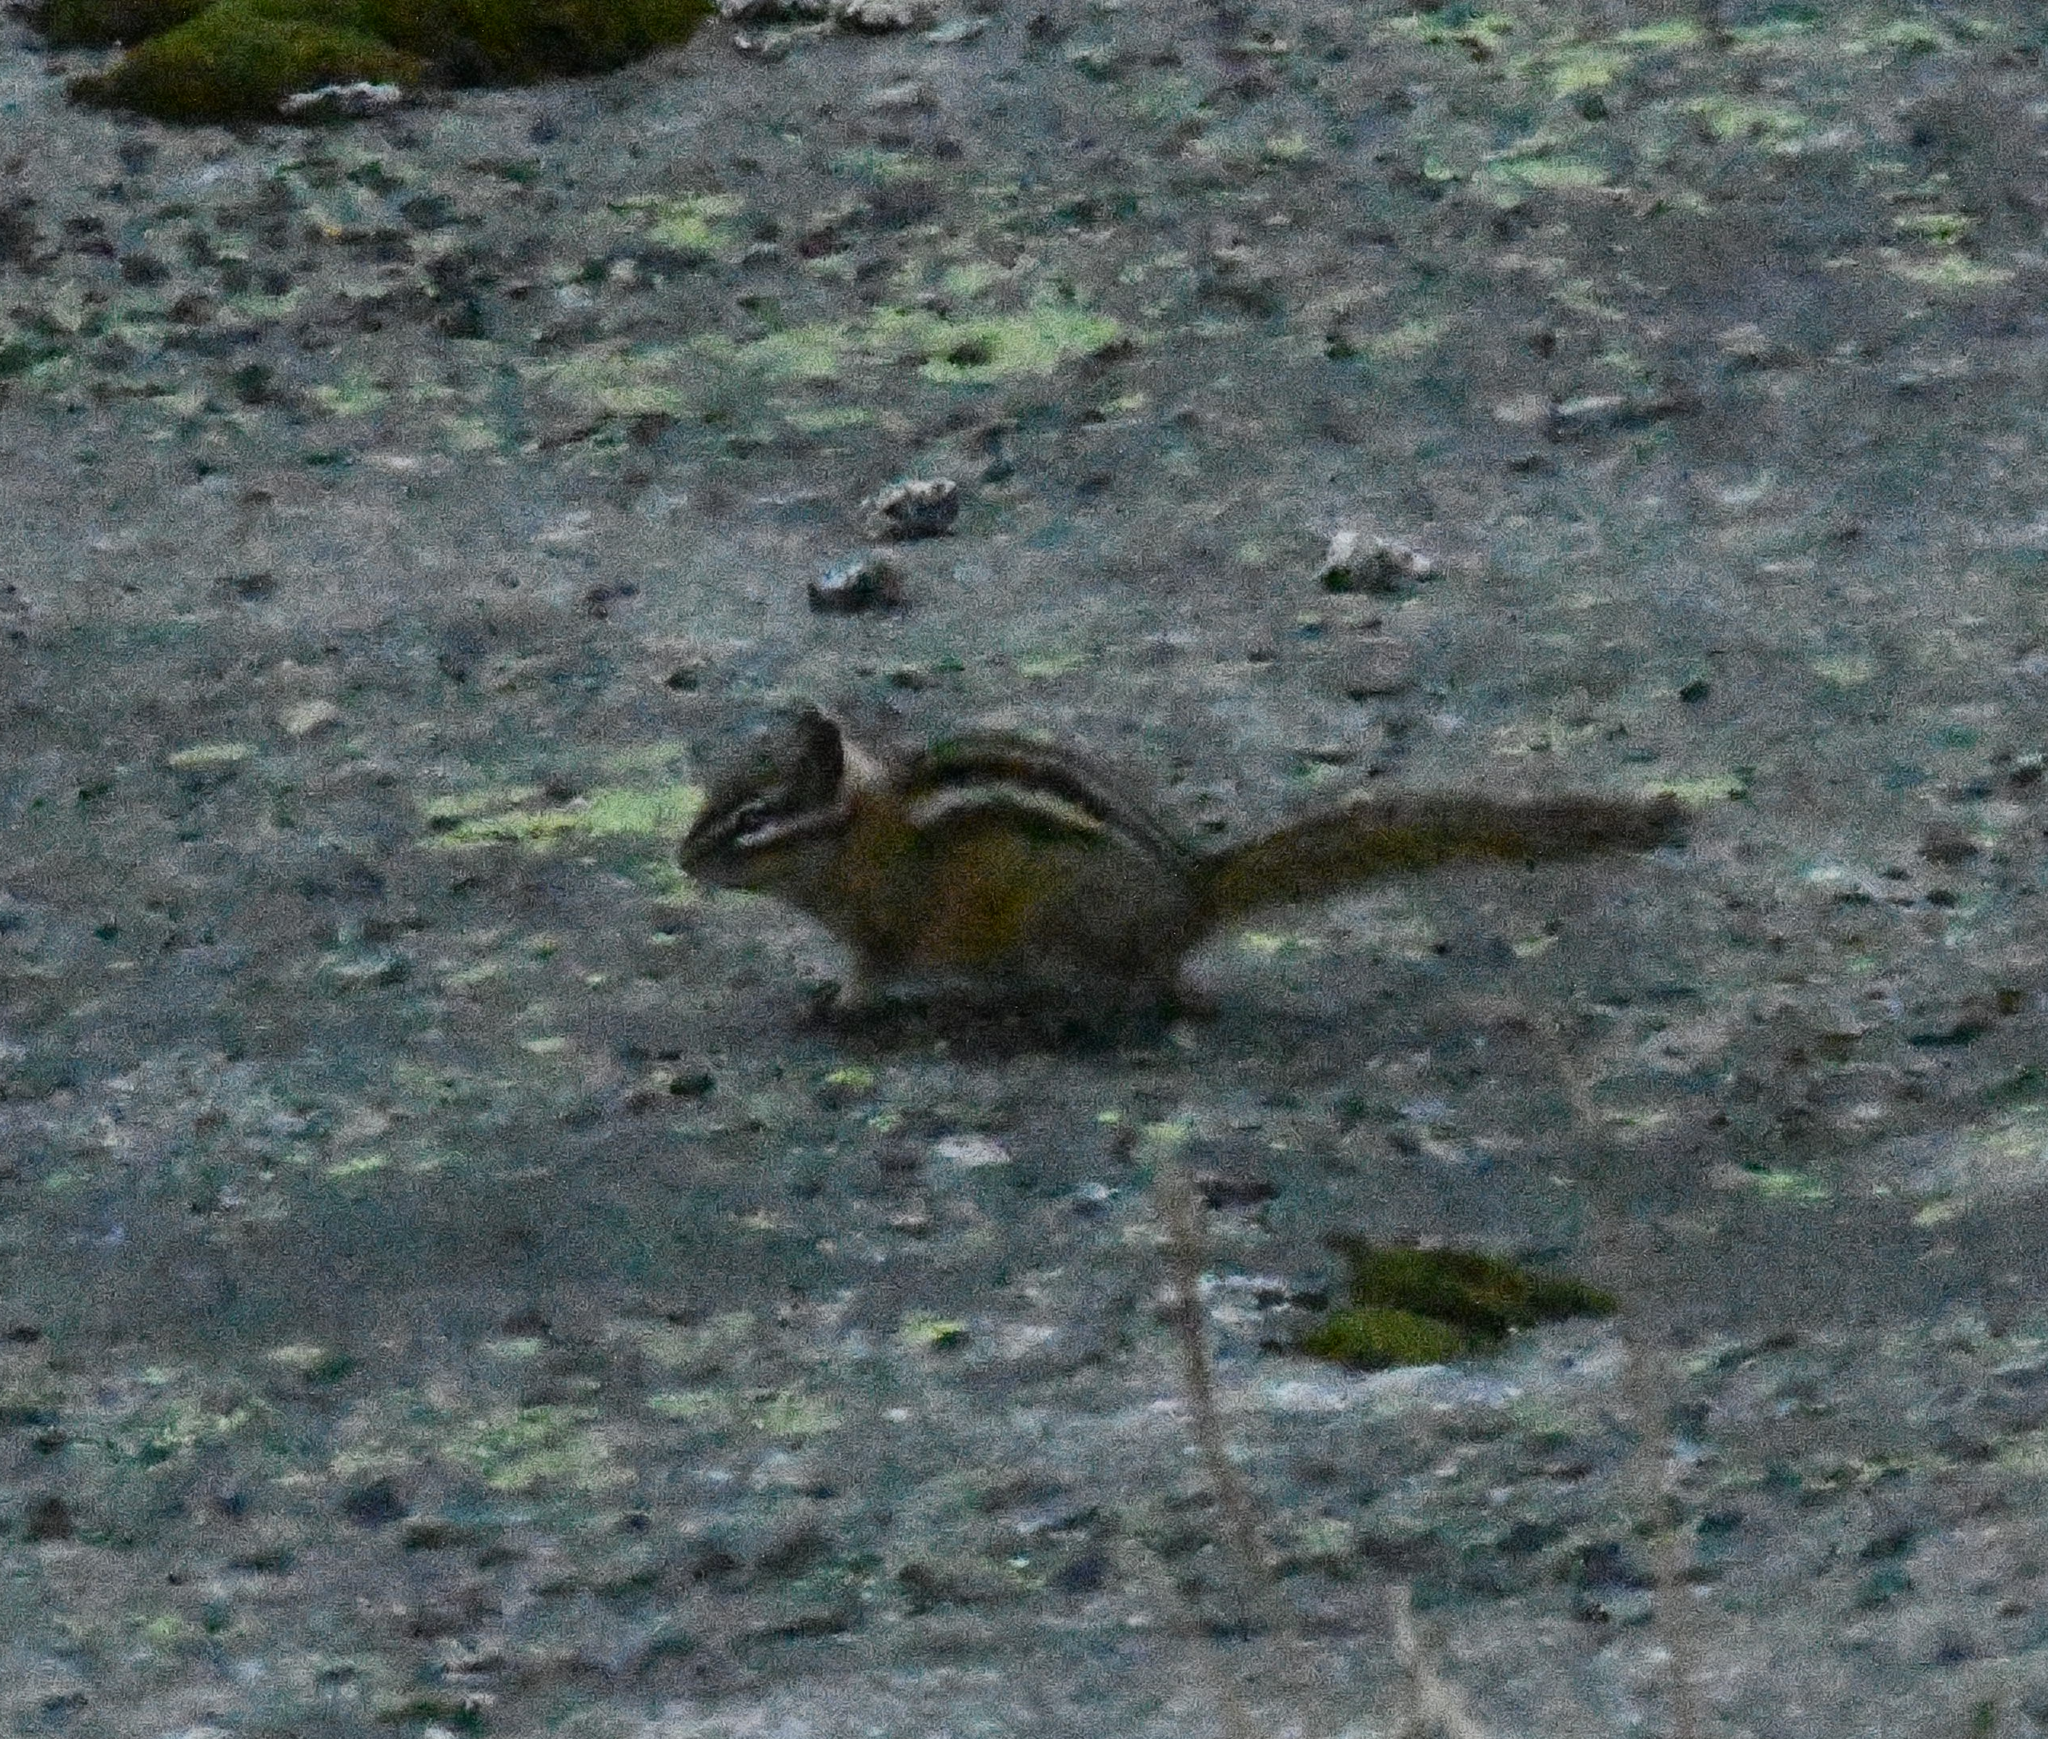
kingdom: Animalia
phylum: Chordata
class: Mammalia
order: Rodentia
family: Sciuridae
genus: Tamias
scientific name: Tamias amoenus
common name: Yellow-pine chipmunk
